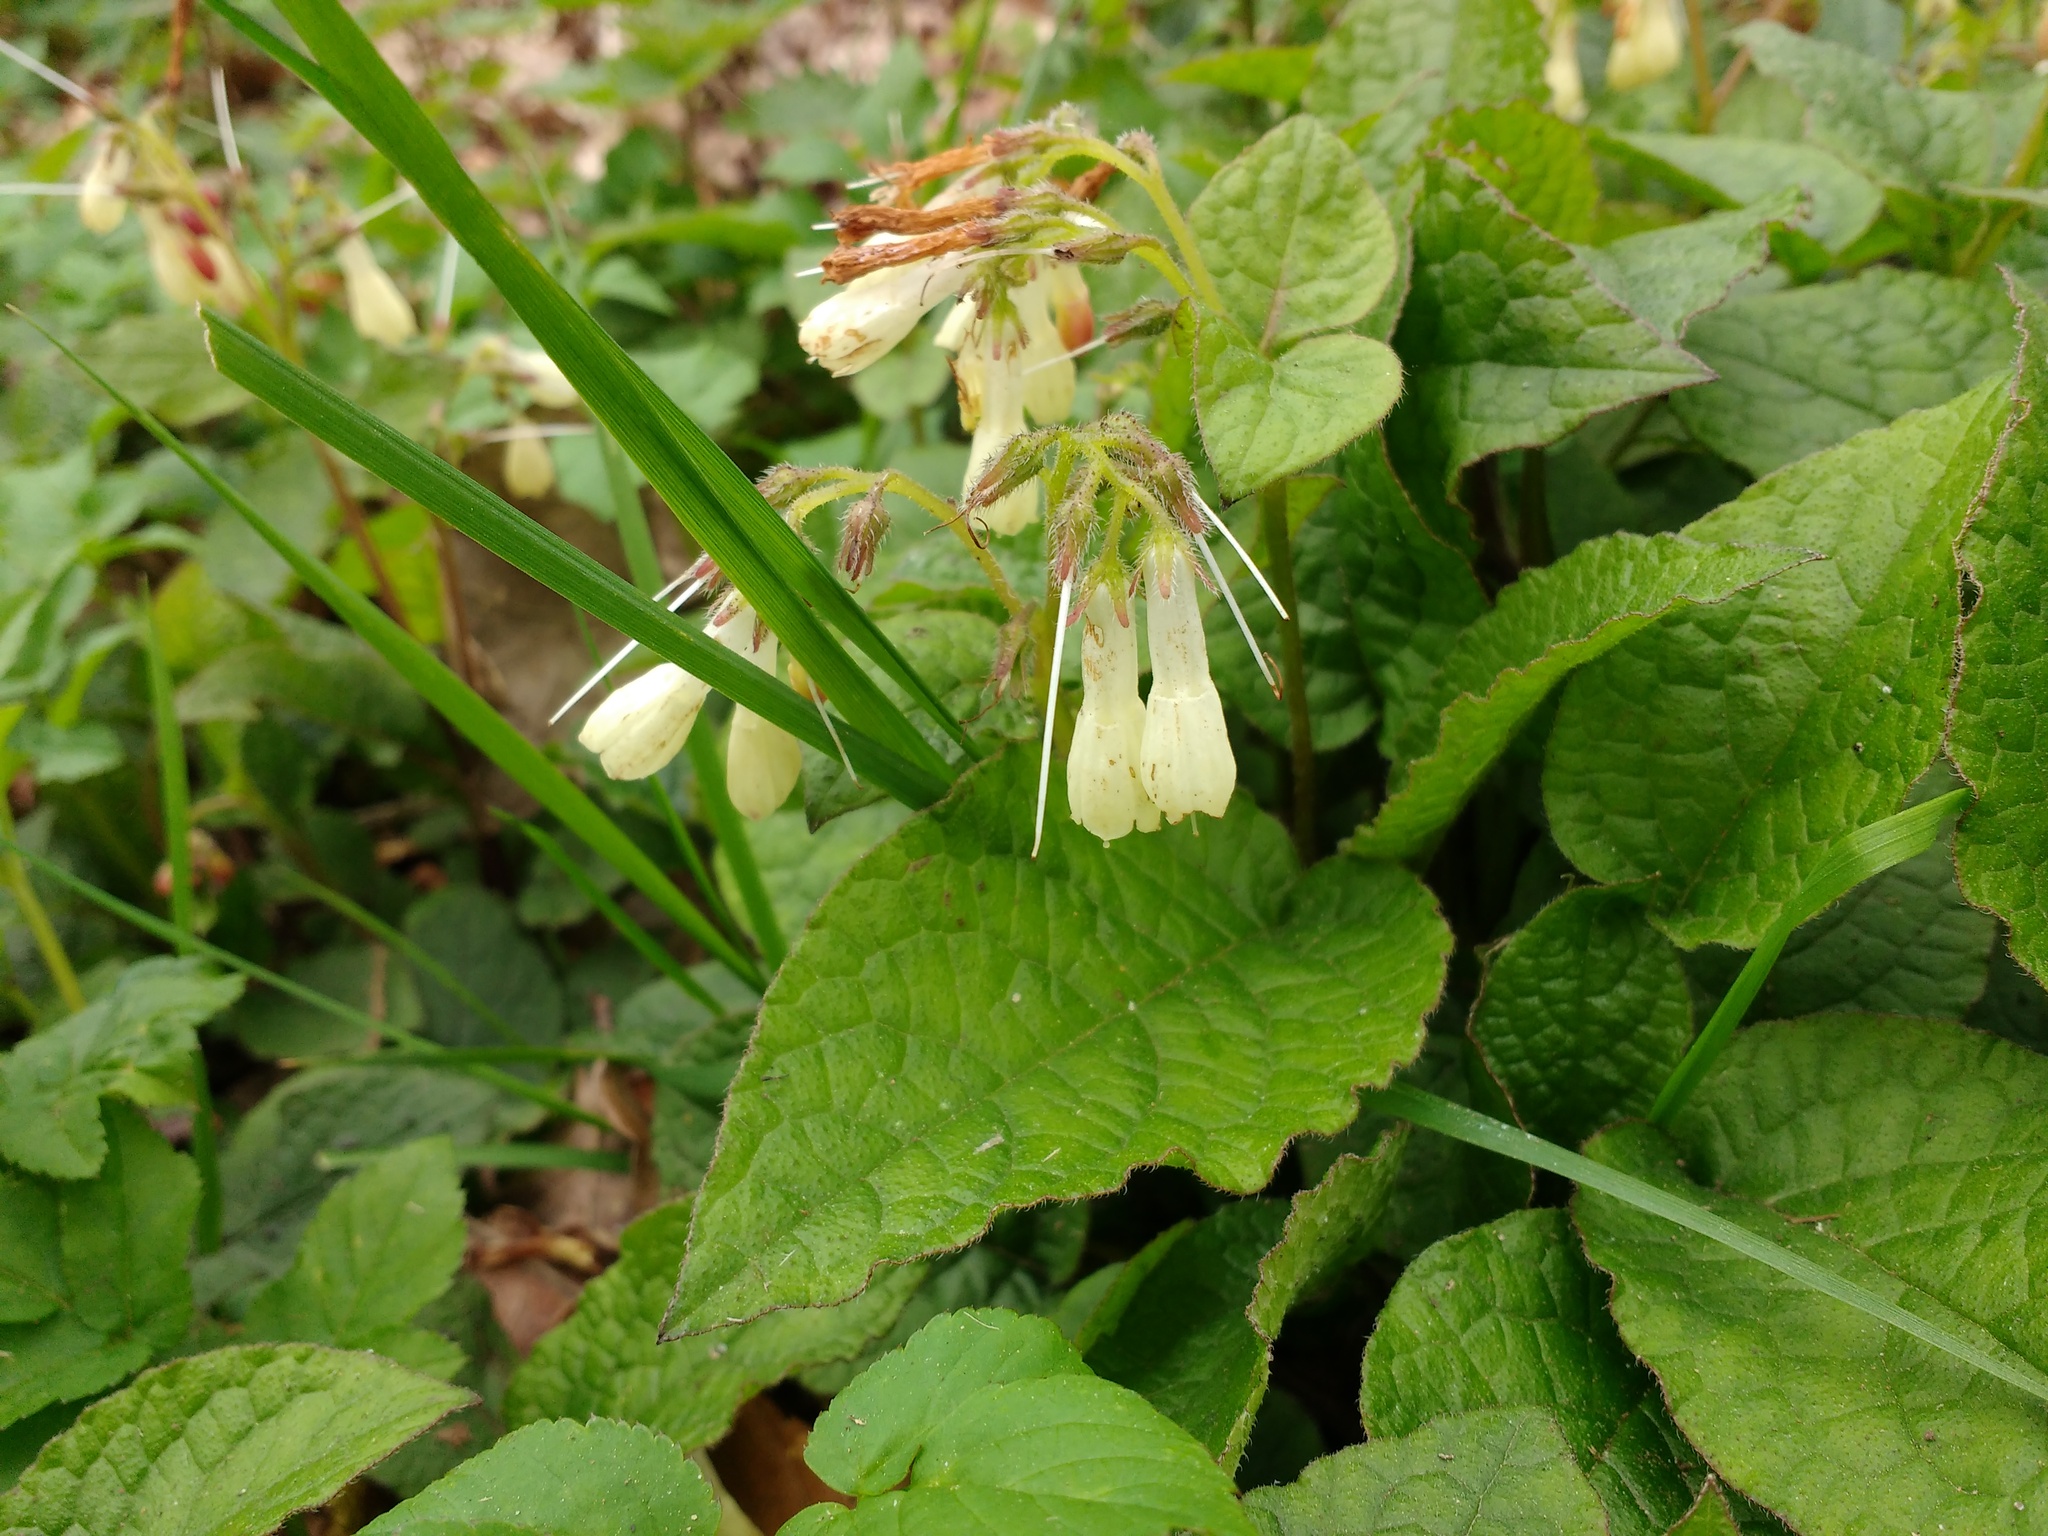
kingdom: Plantae
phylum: Tracheophyta
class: Magnoliopsida
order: Boraginales
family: Boraginaceae
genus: Symphytum
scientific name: Symphytum grandiflorum
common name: Creeping comfrey
